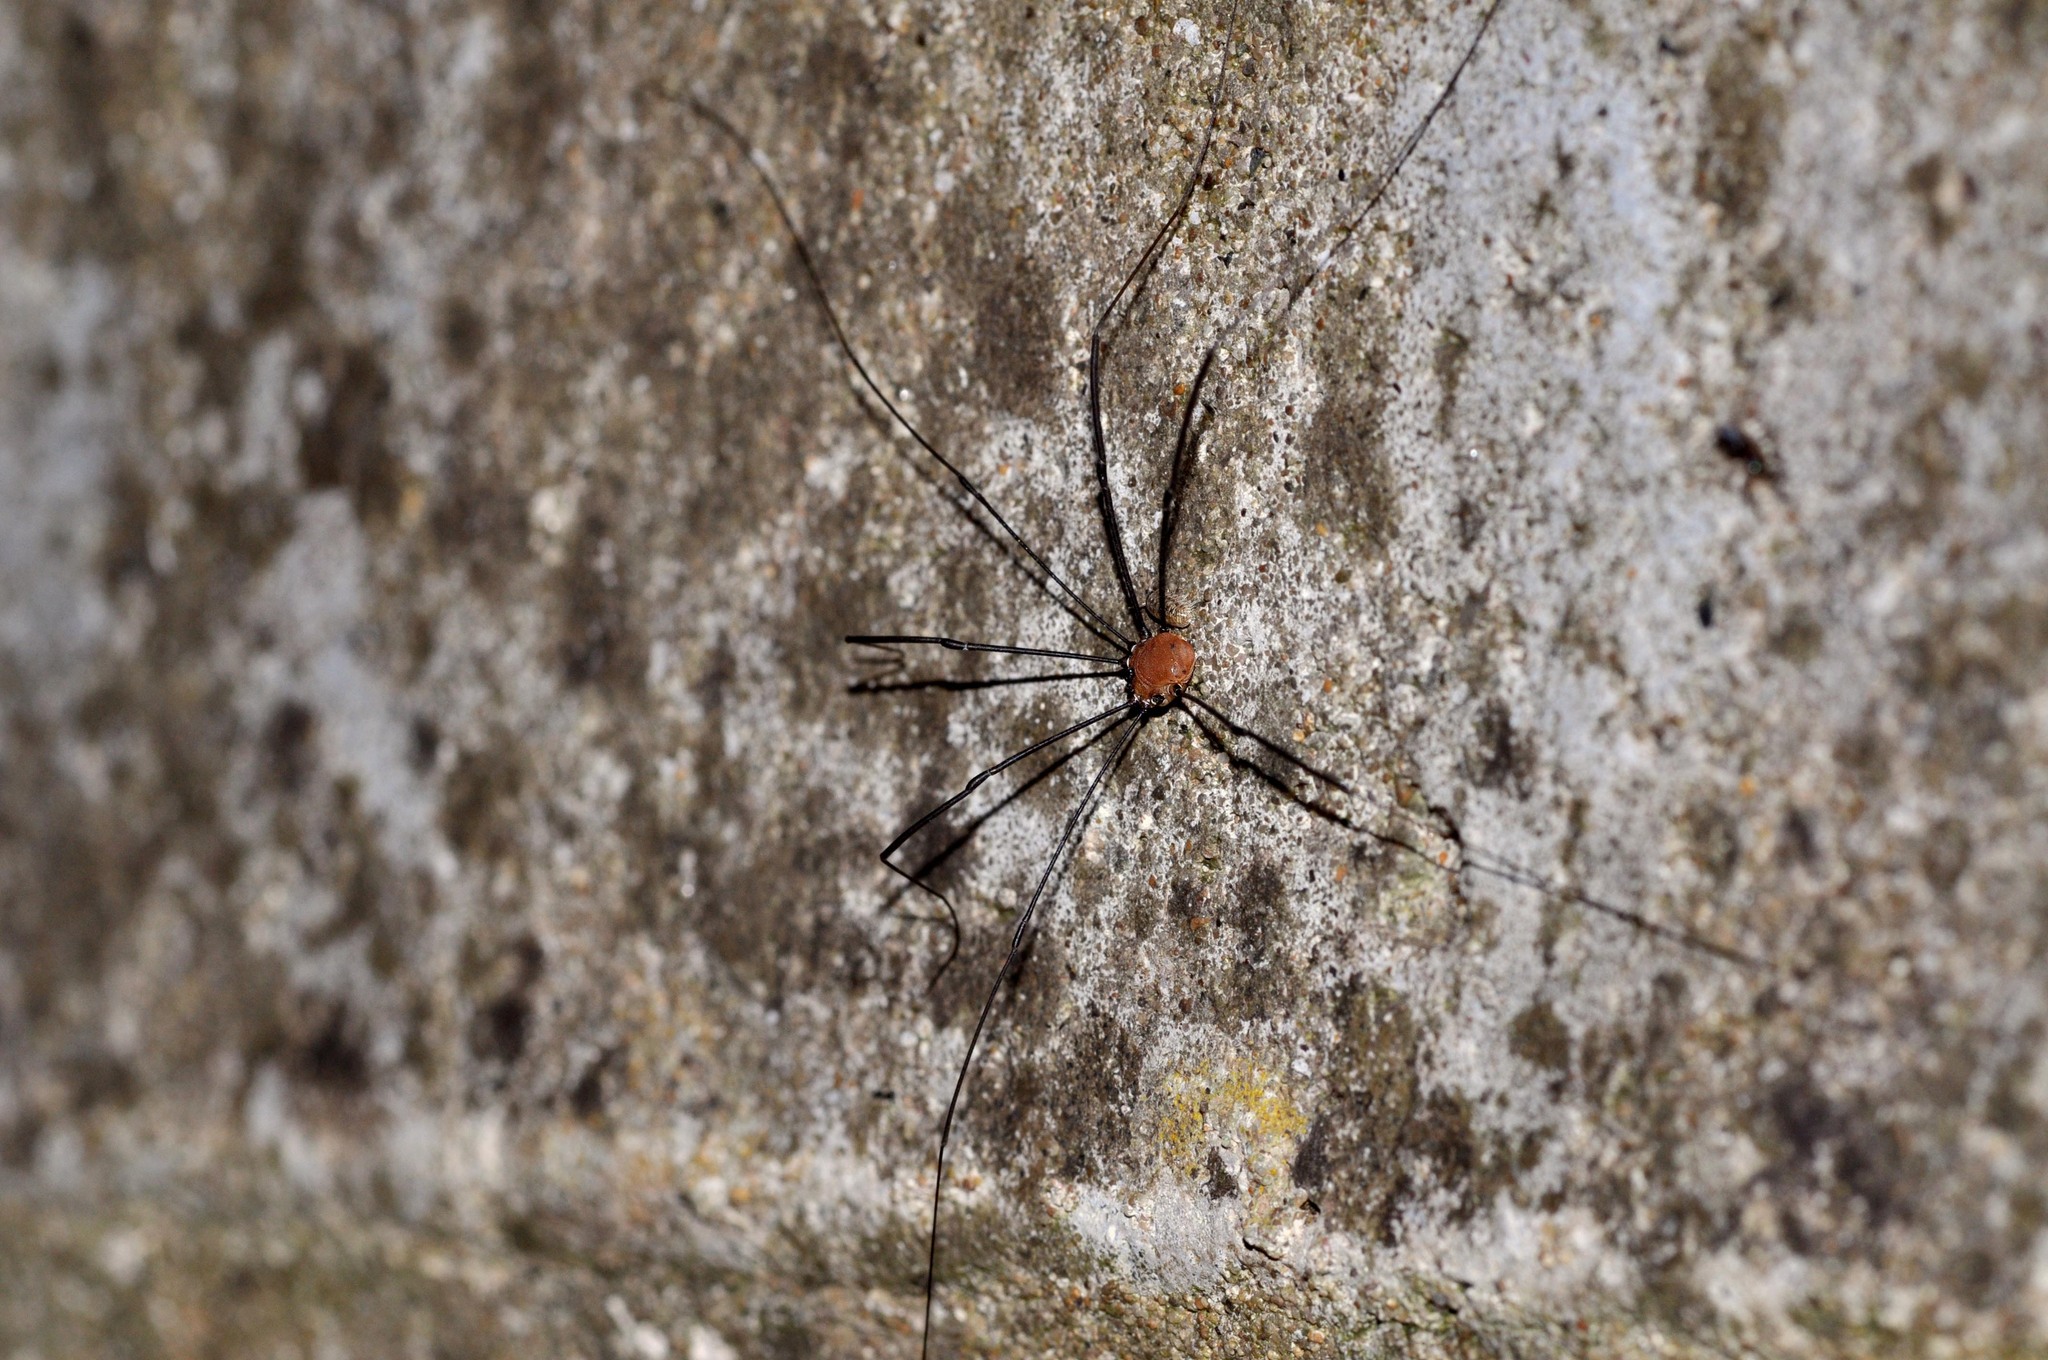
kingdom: Animalia
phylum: Arthropoda
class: Arachnida
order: Opiliones
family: Sclerosomatidae
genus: Leiobunum
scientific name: Leiobunum rotundum
